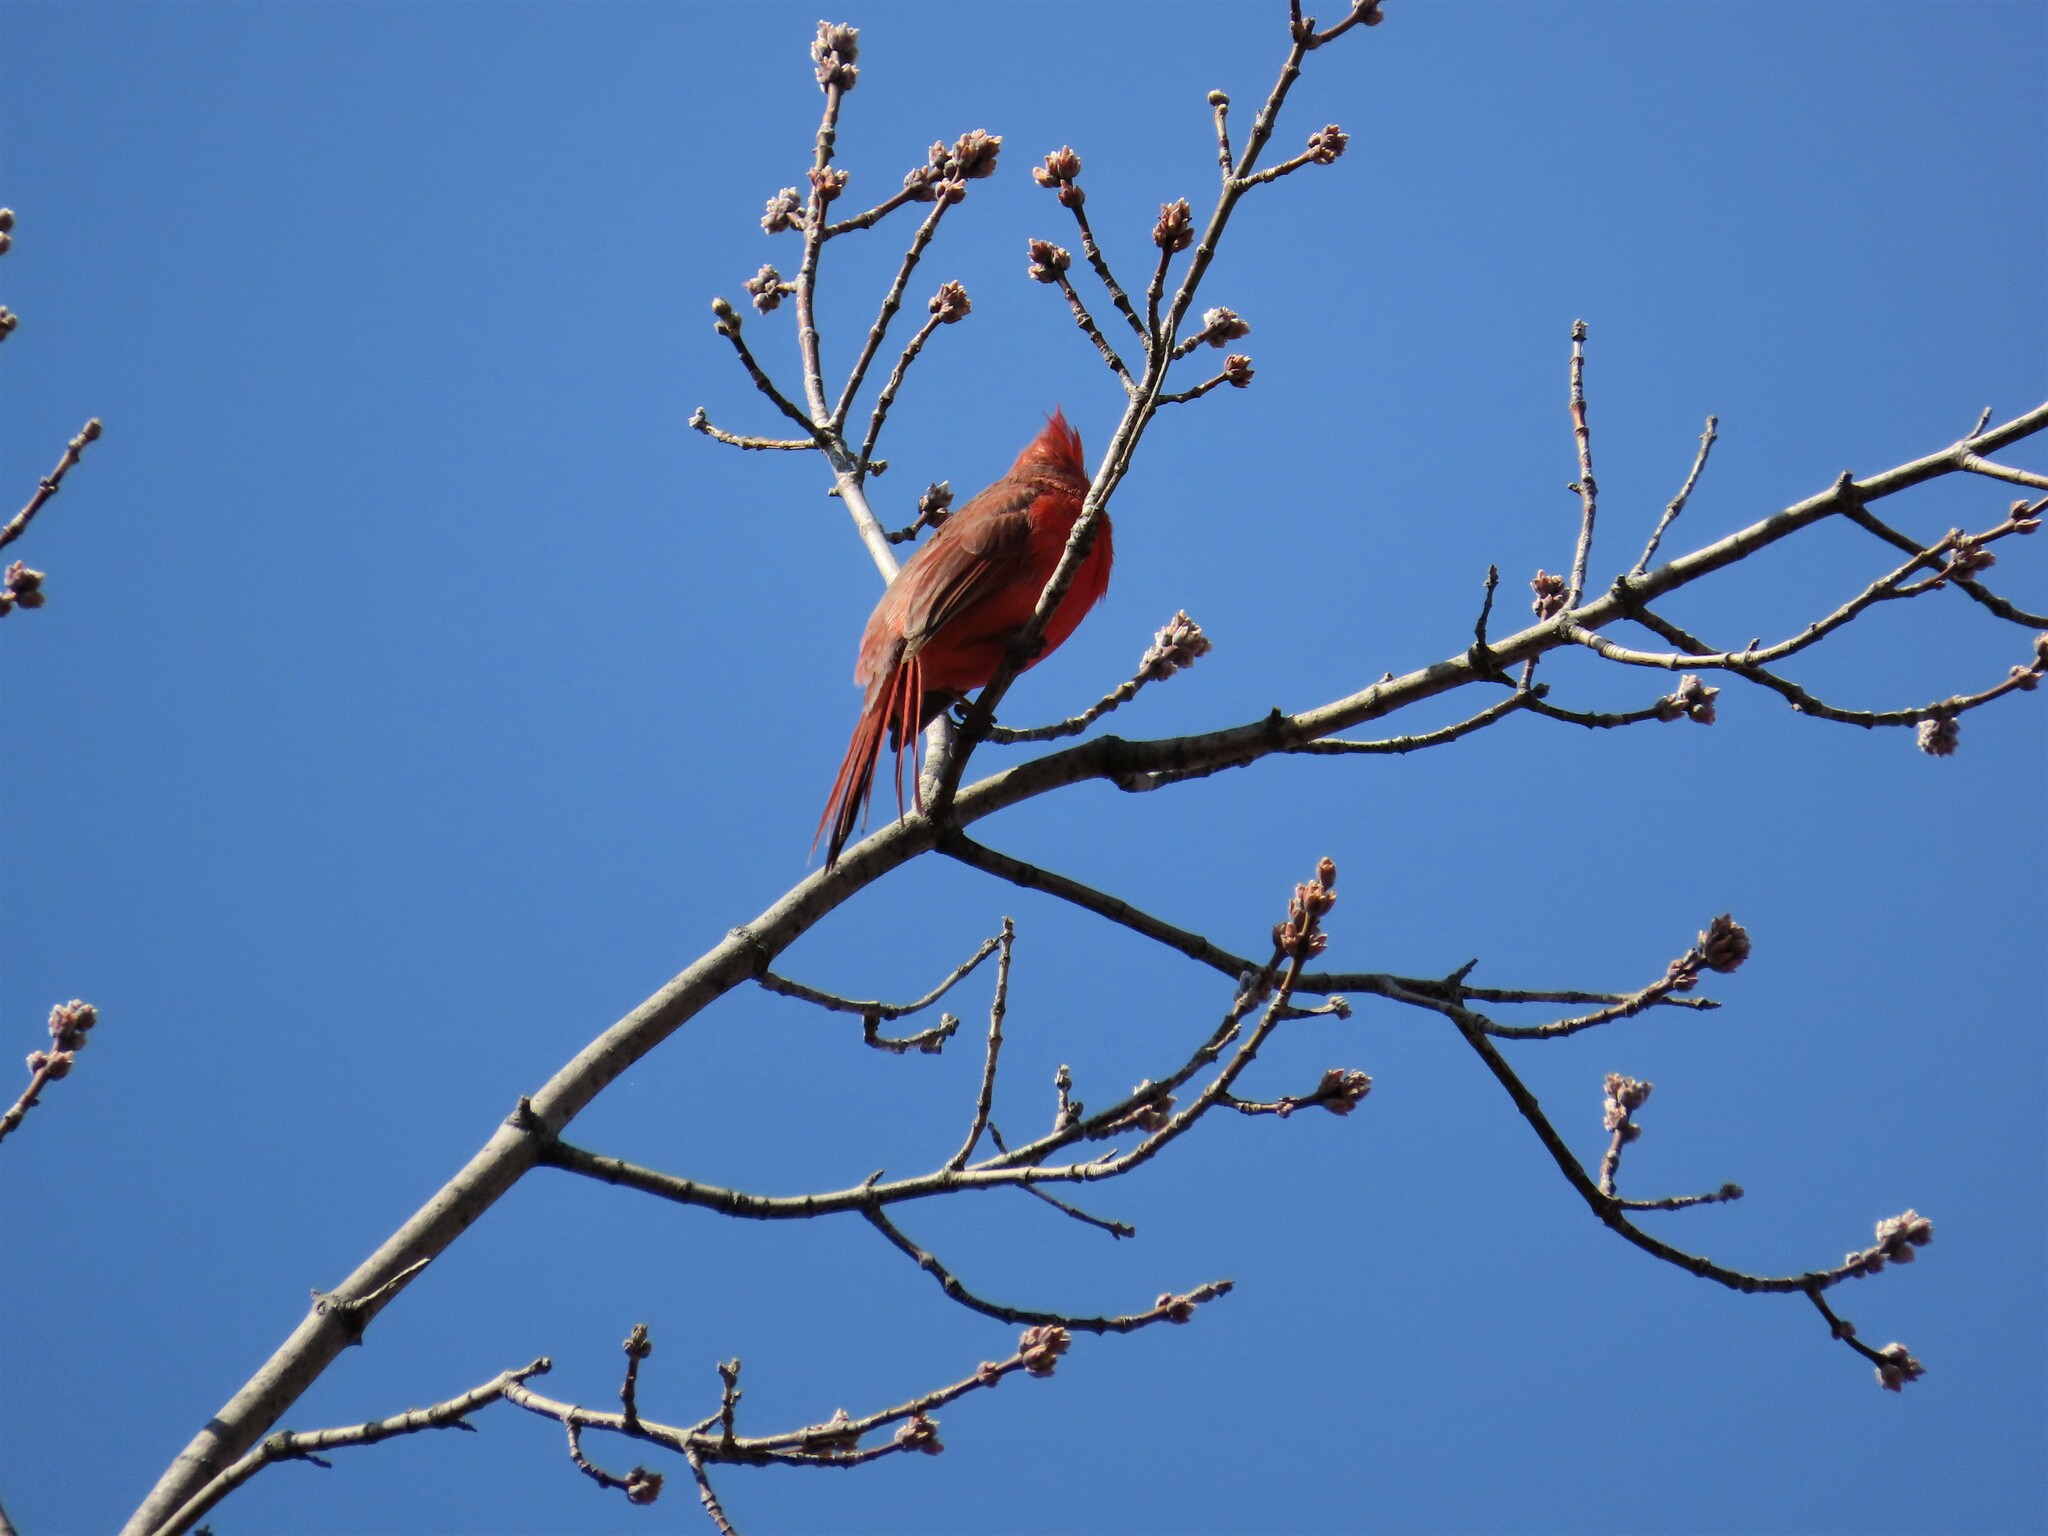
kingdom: Animalia
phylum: Chordata
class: Aves
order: Passeriformes
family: Cardinalidae
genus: Cardinalis
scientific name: Cardinalis cardinalis
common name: Northern cardinal
